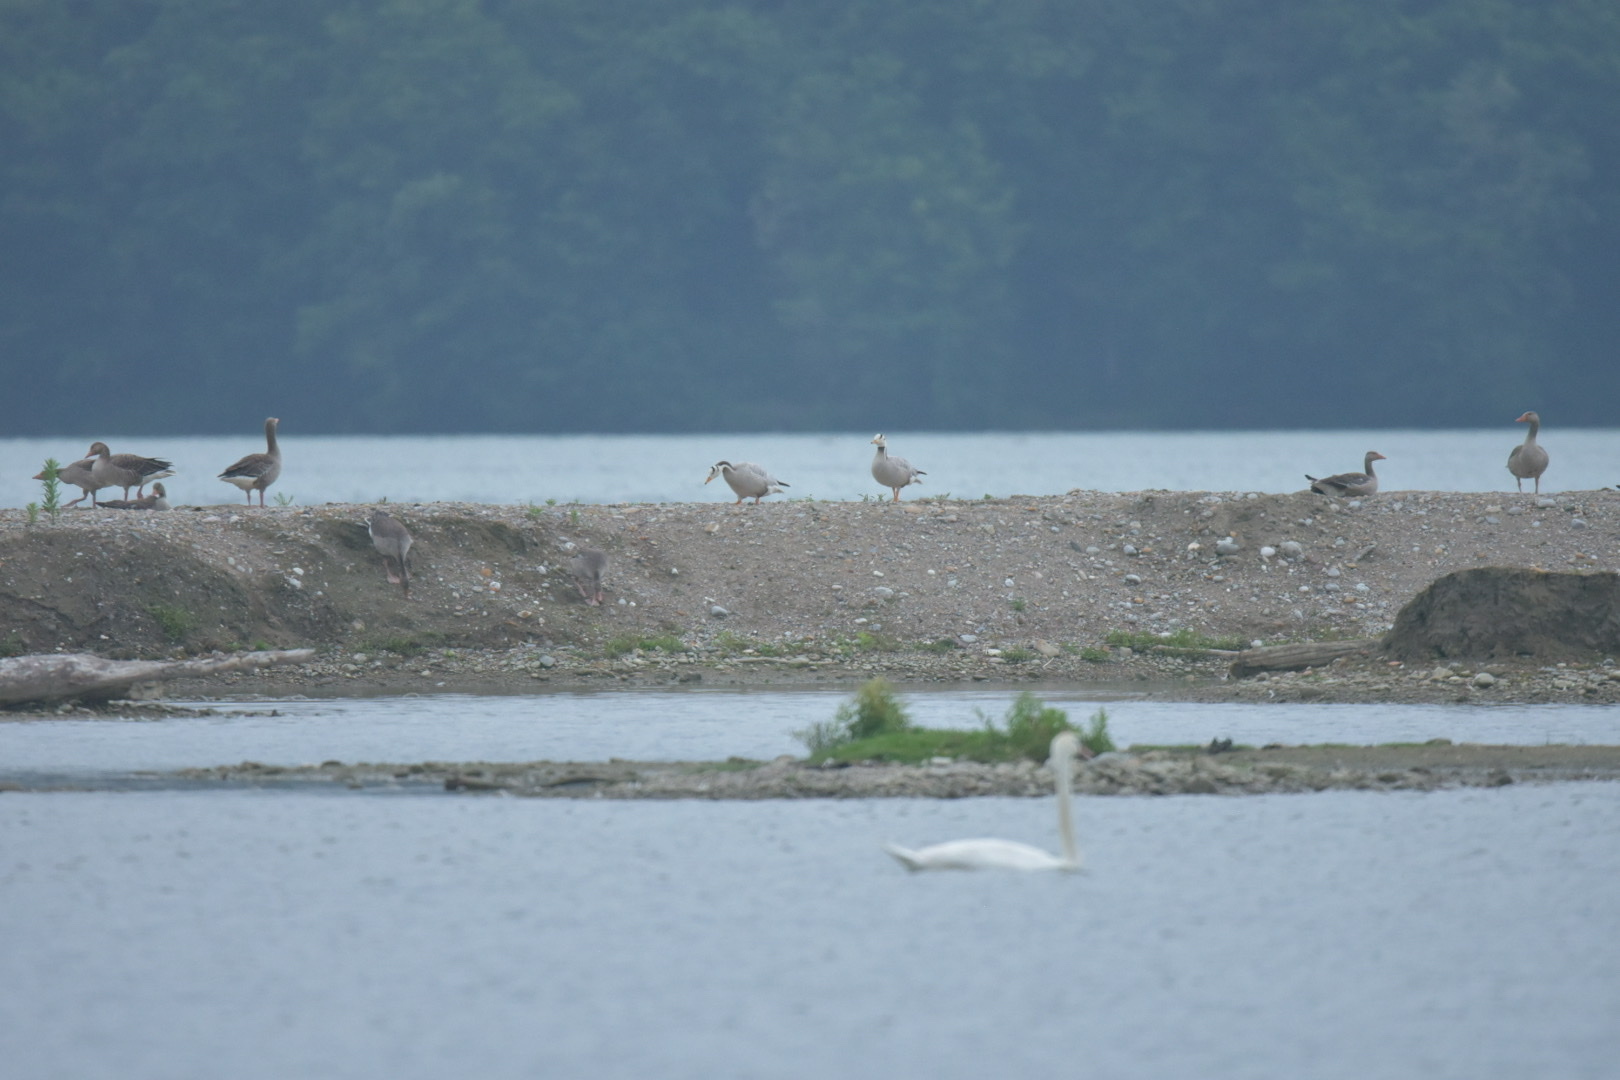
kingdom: Animalia
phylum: Chordata
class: Aves
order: Anseriformes
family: Anatidae
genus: Anser
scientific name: Anser indicus
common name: Bar-headed goose
